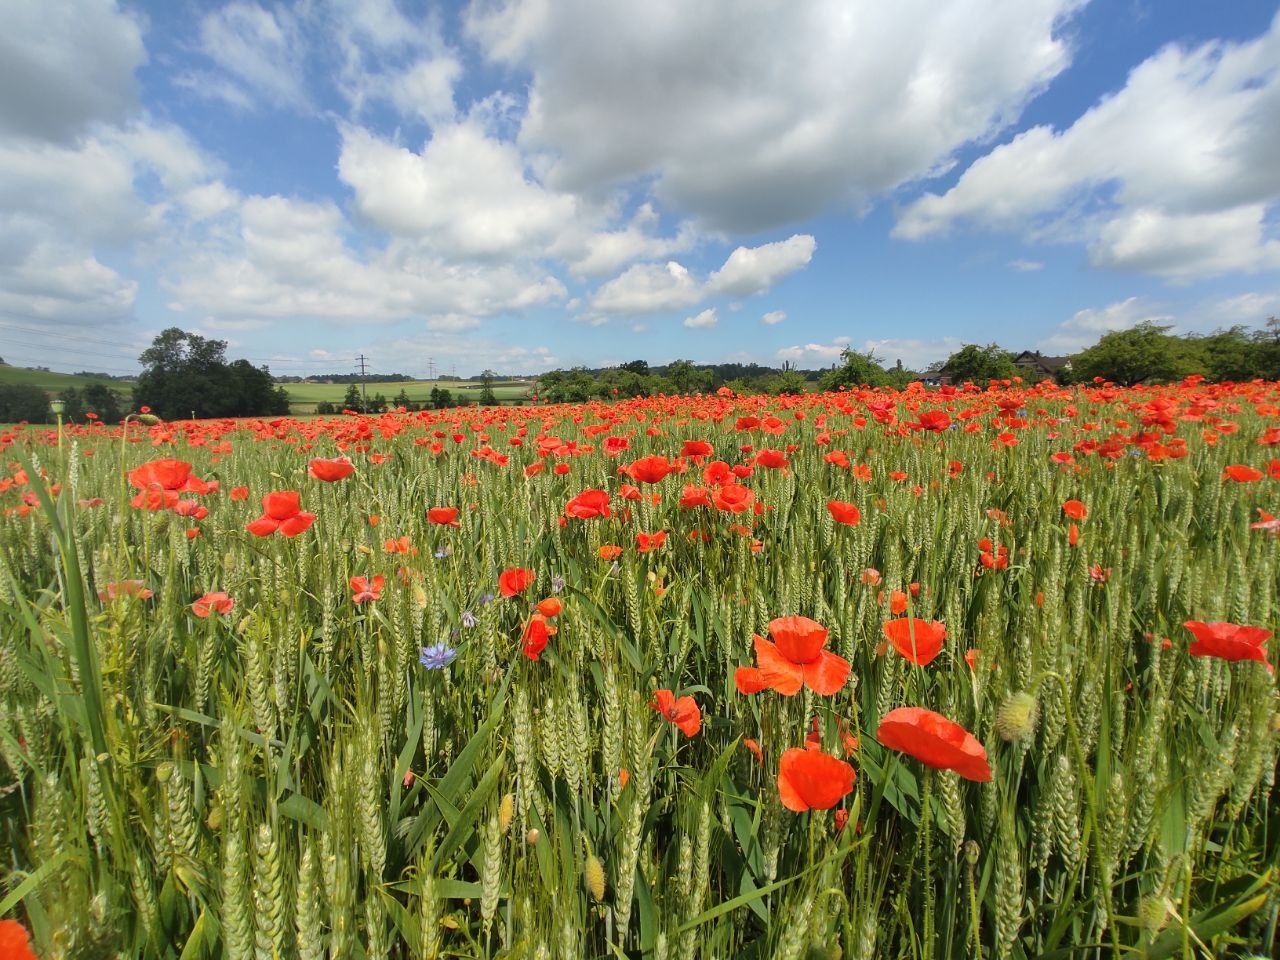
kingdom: Plantae
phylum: Tracheophyta
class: Magnoliopsida
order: Ranunculales
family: Papaveraceae
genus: Papaver
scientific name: Papaver rhoeas
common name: Corn poppy
